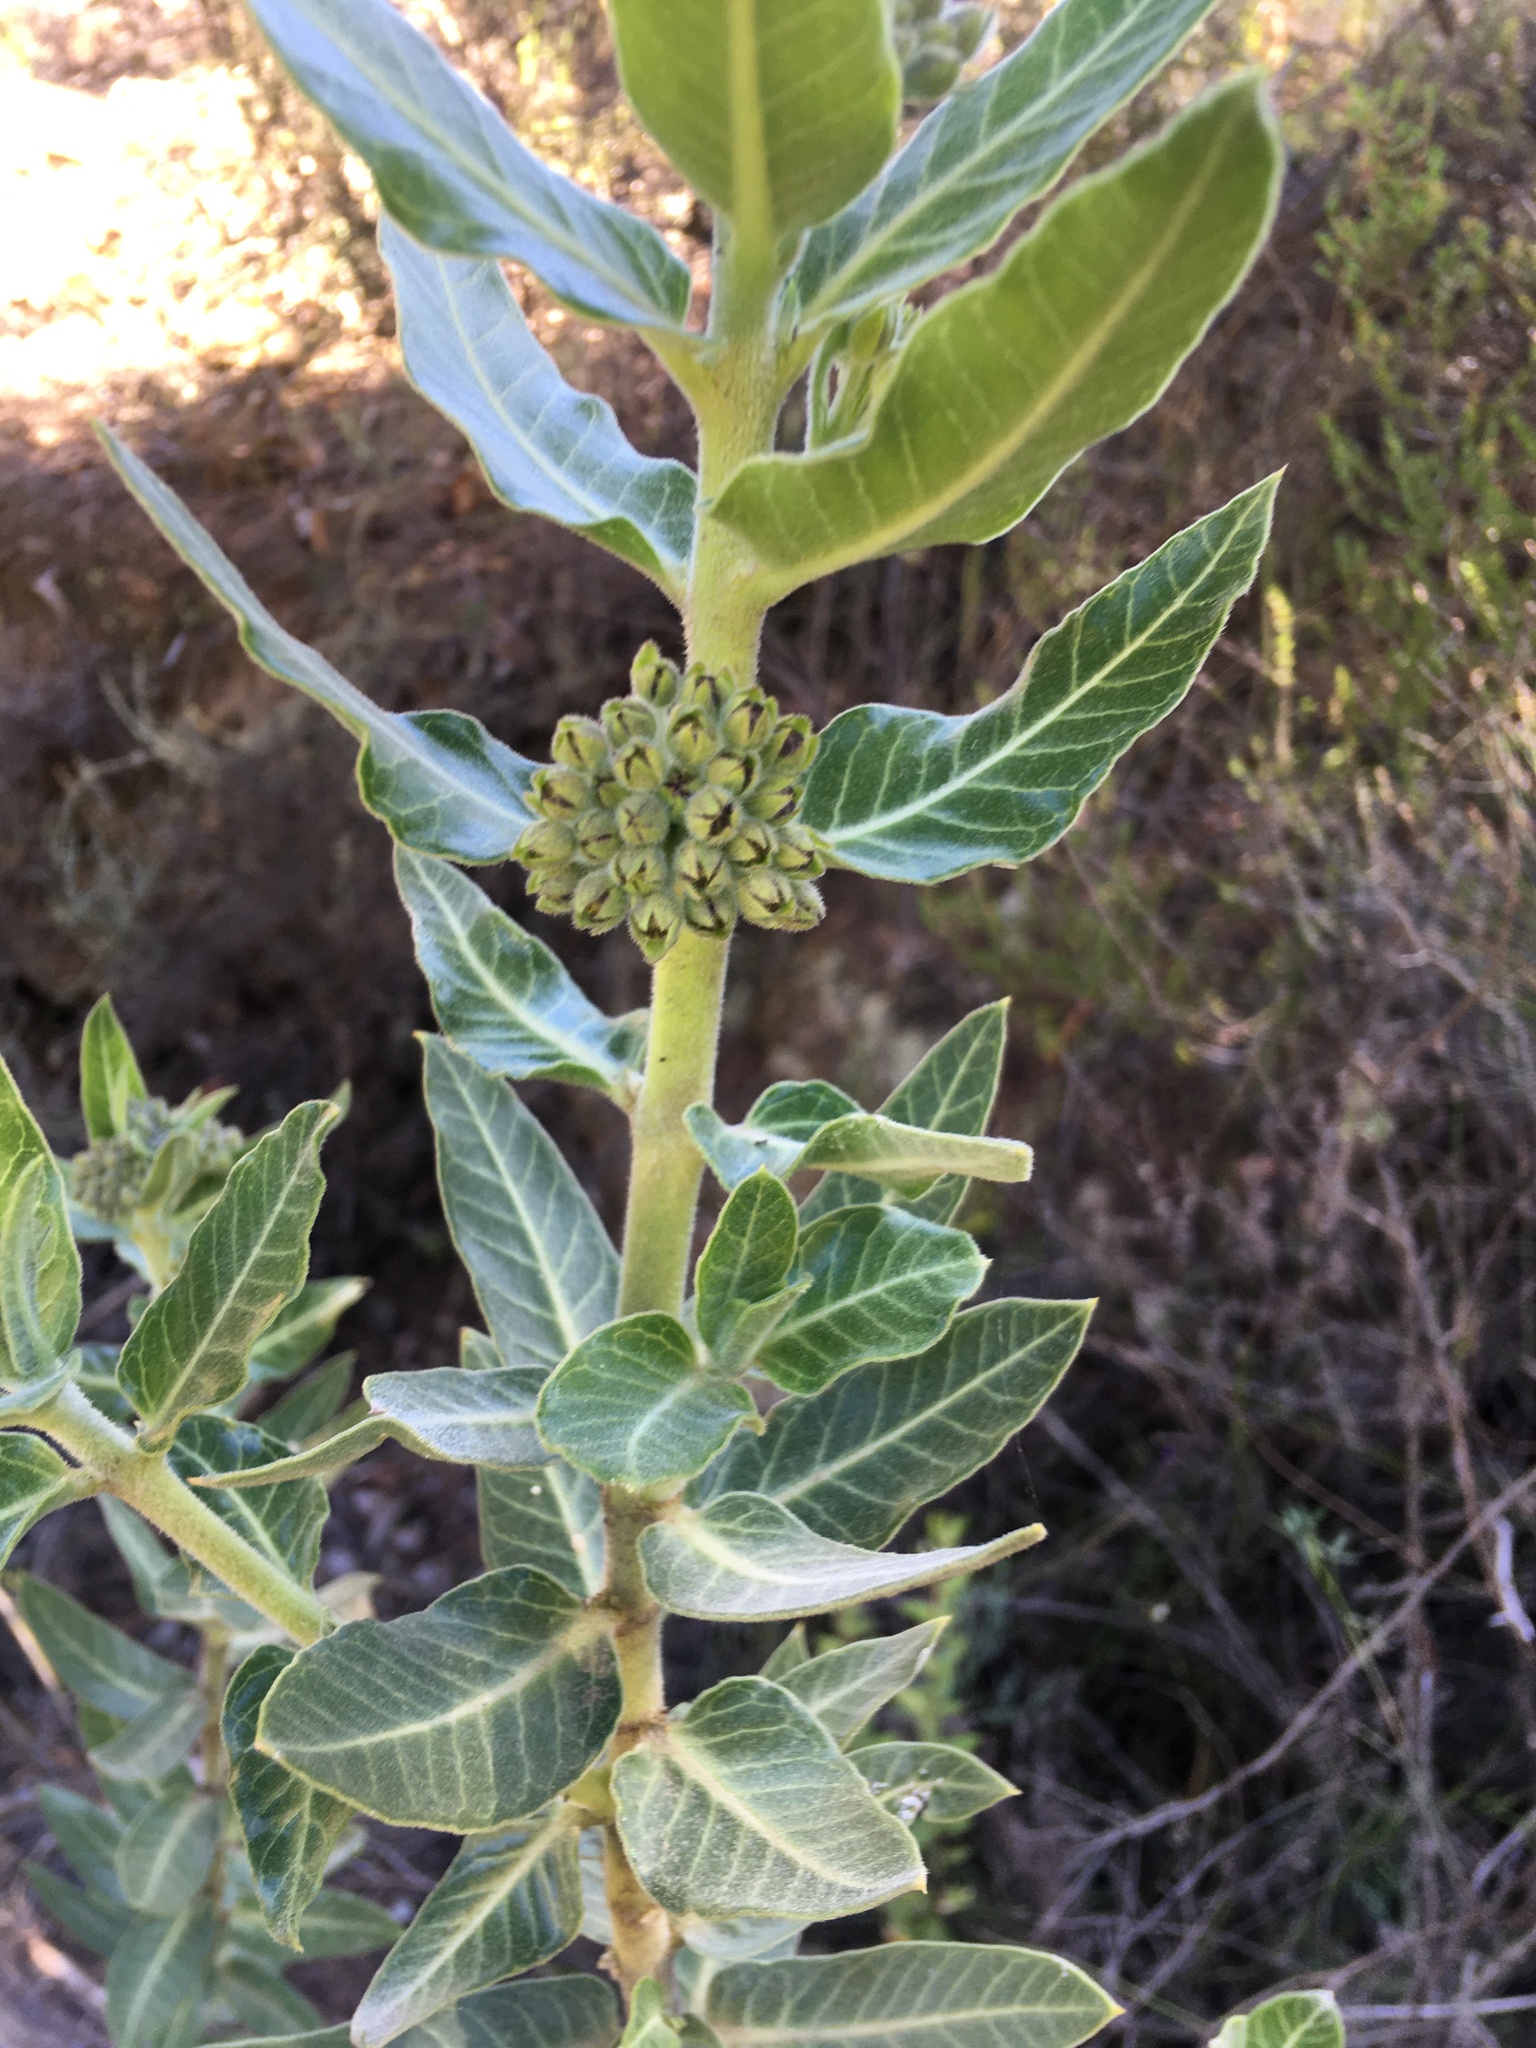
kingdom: Plantae
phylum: Tracheophyta
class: Magnoliopsida
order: Gentianales
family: Apocynaceae
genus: Gomphocarpus
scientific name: Gomphocarpus cancellatus
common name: Wild cotton
